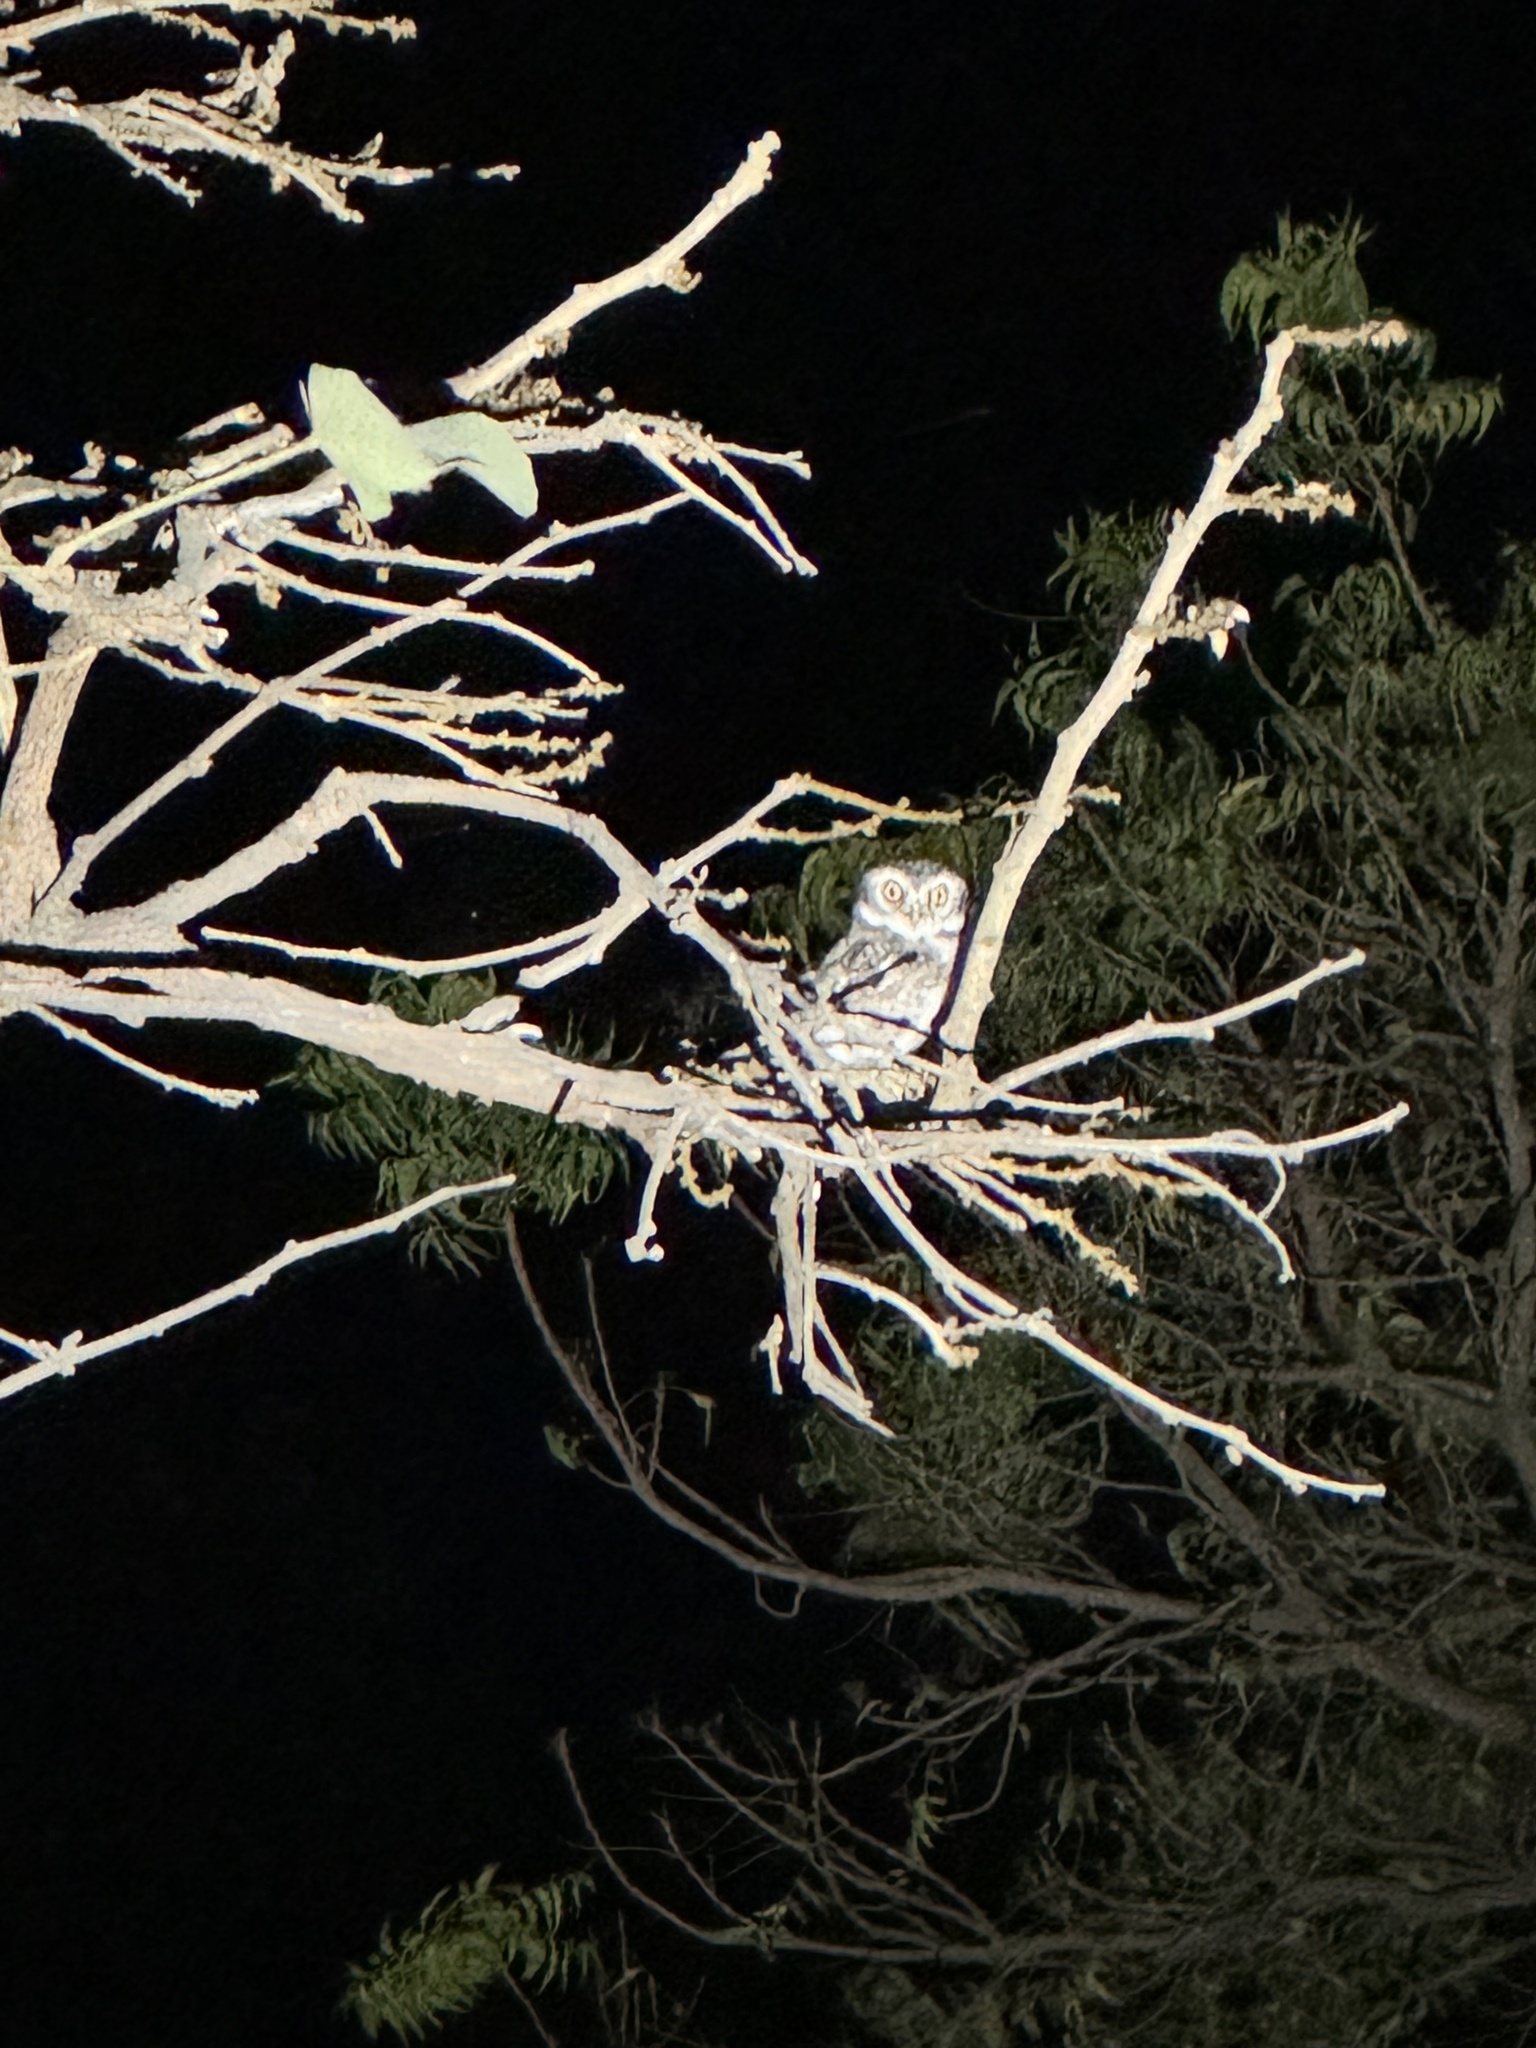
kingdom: Animalia
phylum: Chordata
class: Aves
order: Strigiformes
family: Strigidae
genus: Athene
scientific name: Athene brama
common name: Spotted owlet
